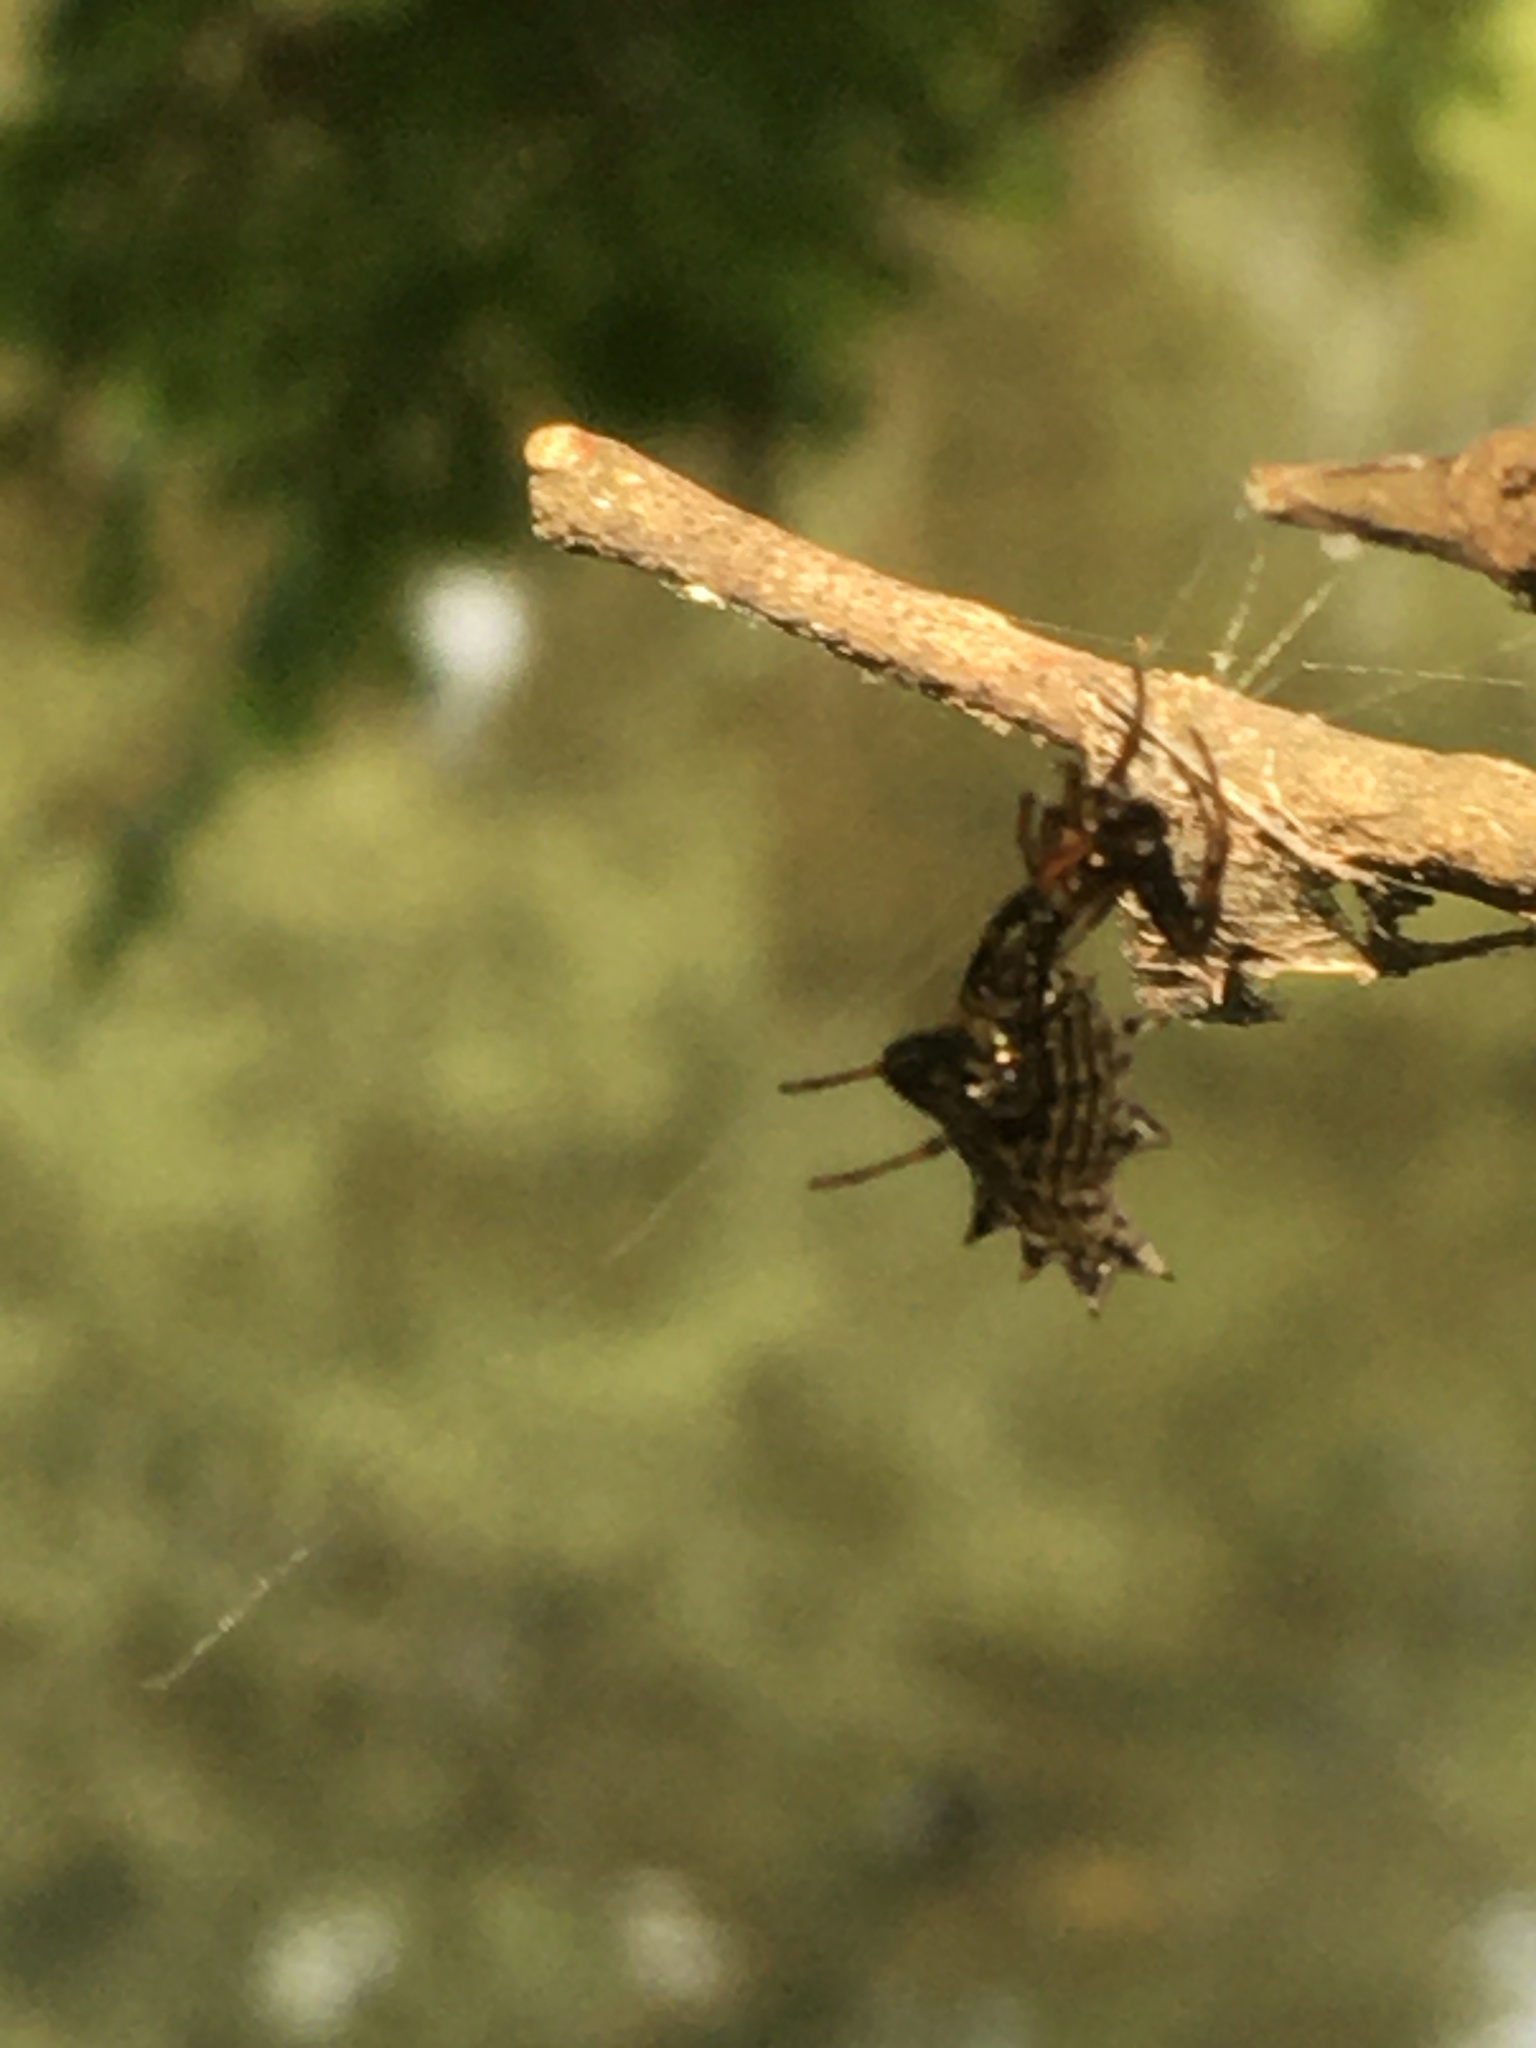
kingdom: Animalia
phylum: Arthropoda
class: Arachnida
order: Araneae
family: Araneidae
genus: Micrathena
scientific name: Micrathena gracilis
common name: Orb weavers
